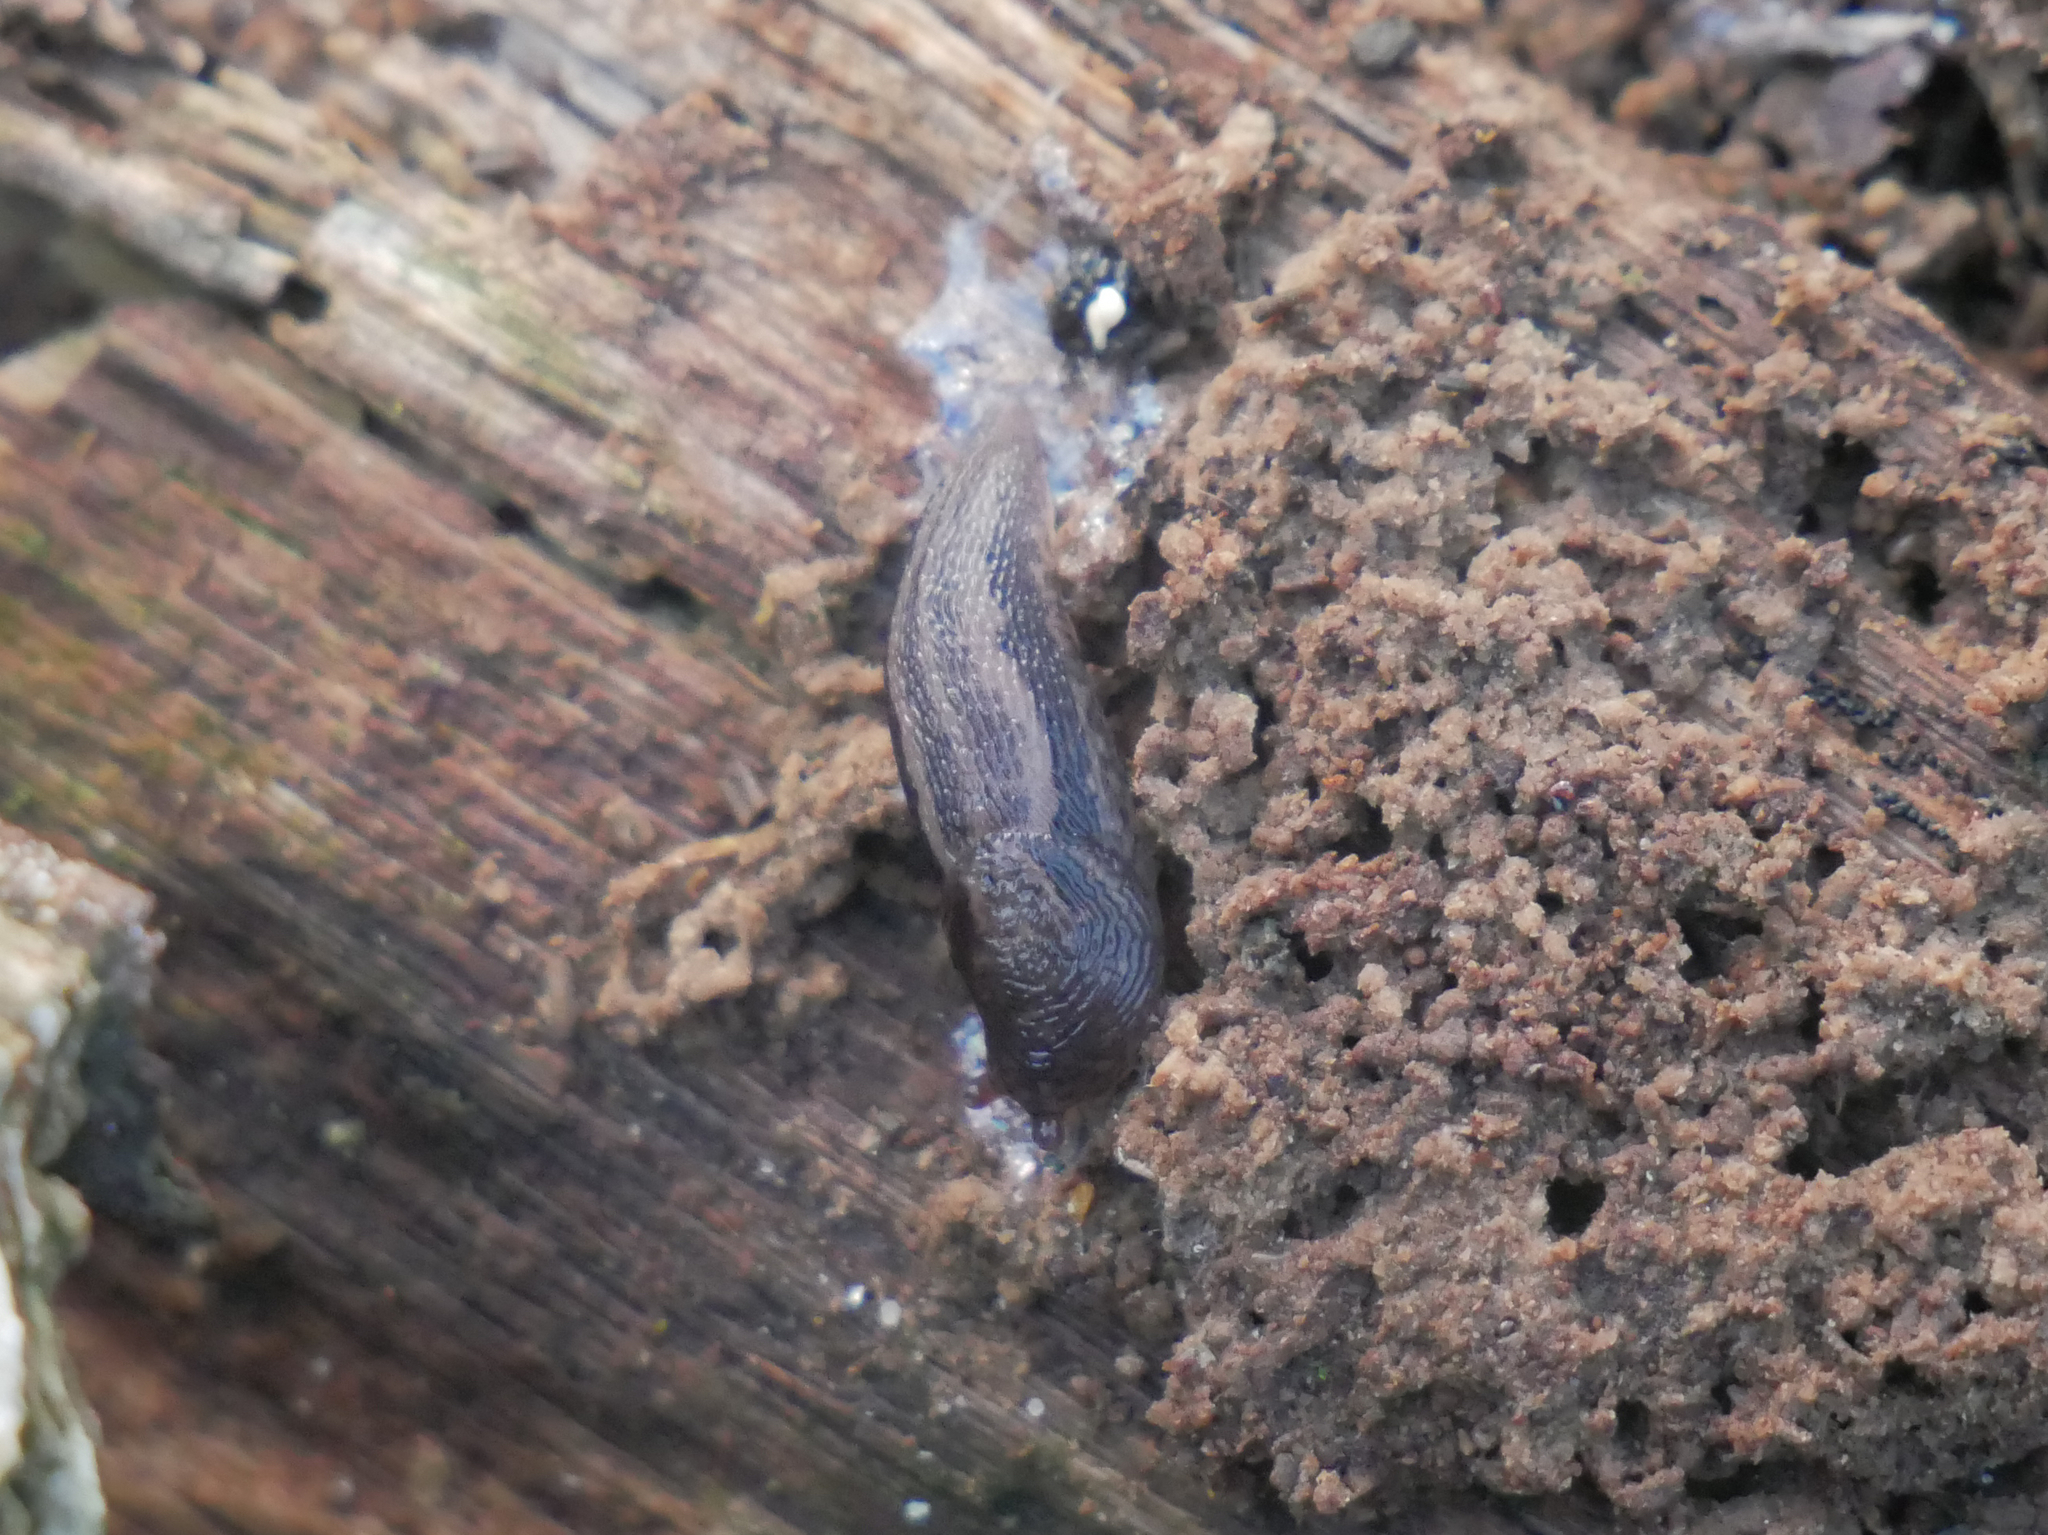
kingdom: Animalia
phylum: Mollusca
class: Gastropoda
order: Stylommatophora
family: Limacidae
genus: Limax
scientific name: Limax maximus
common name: Great grey slug
